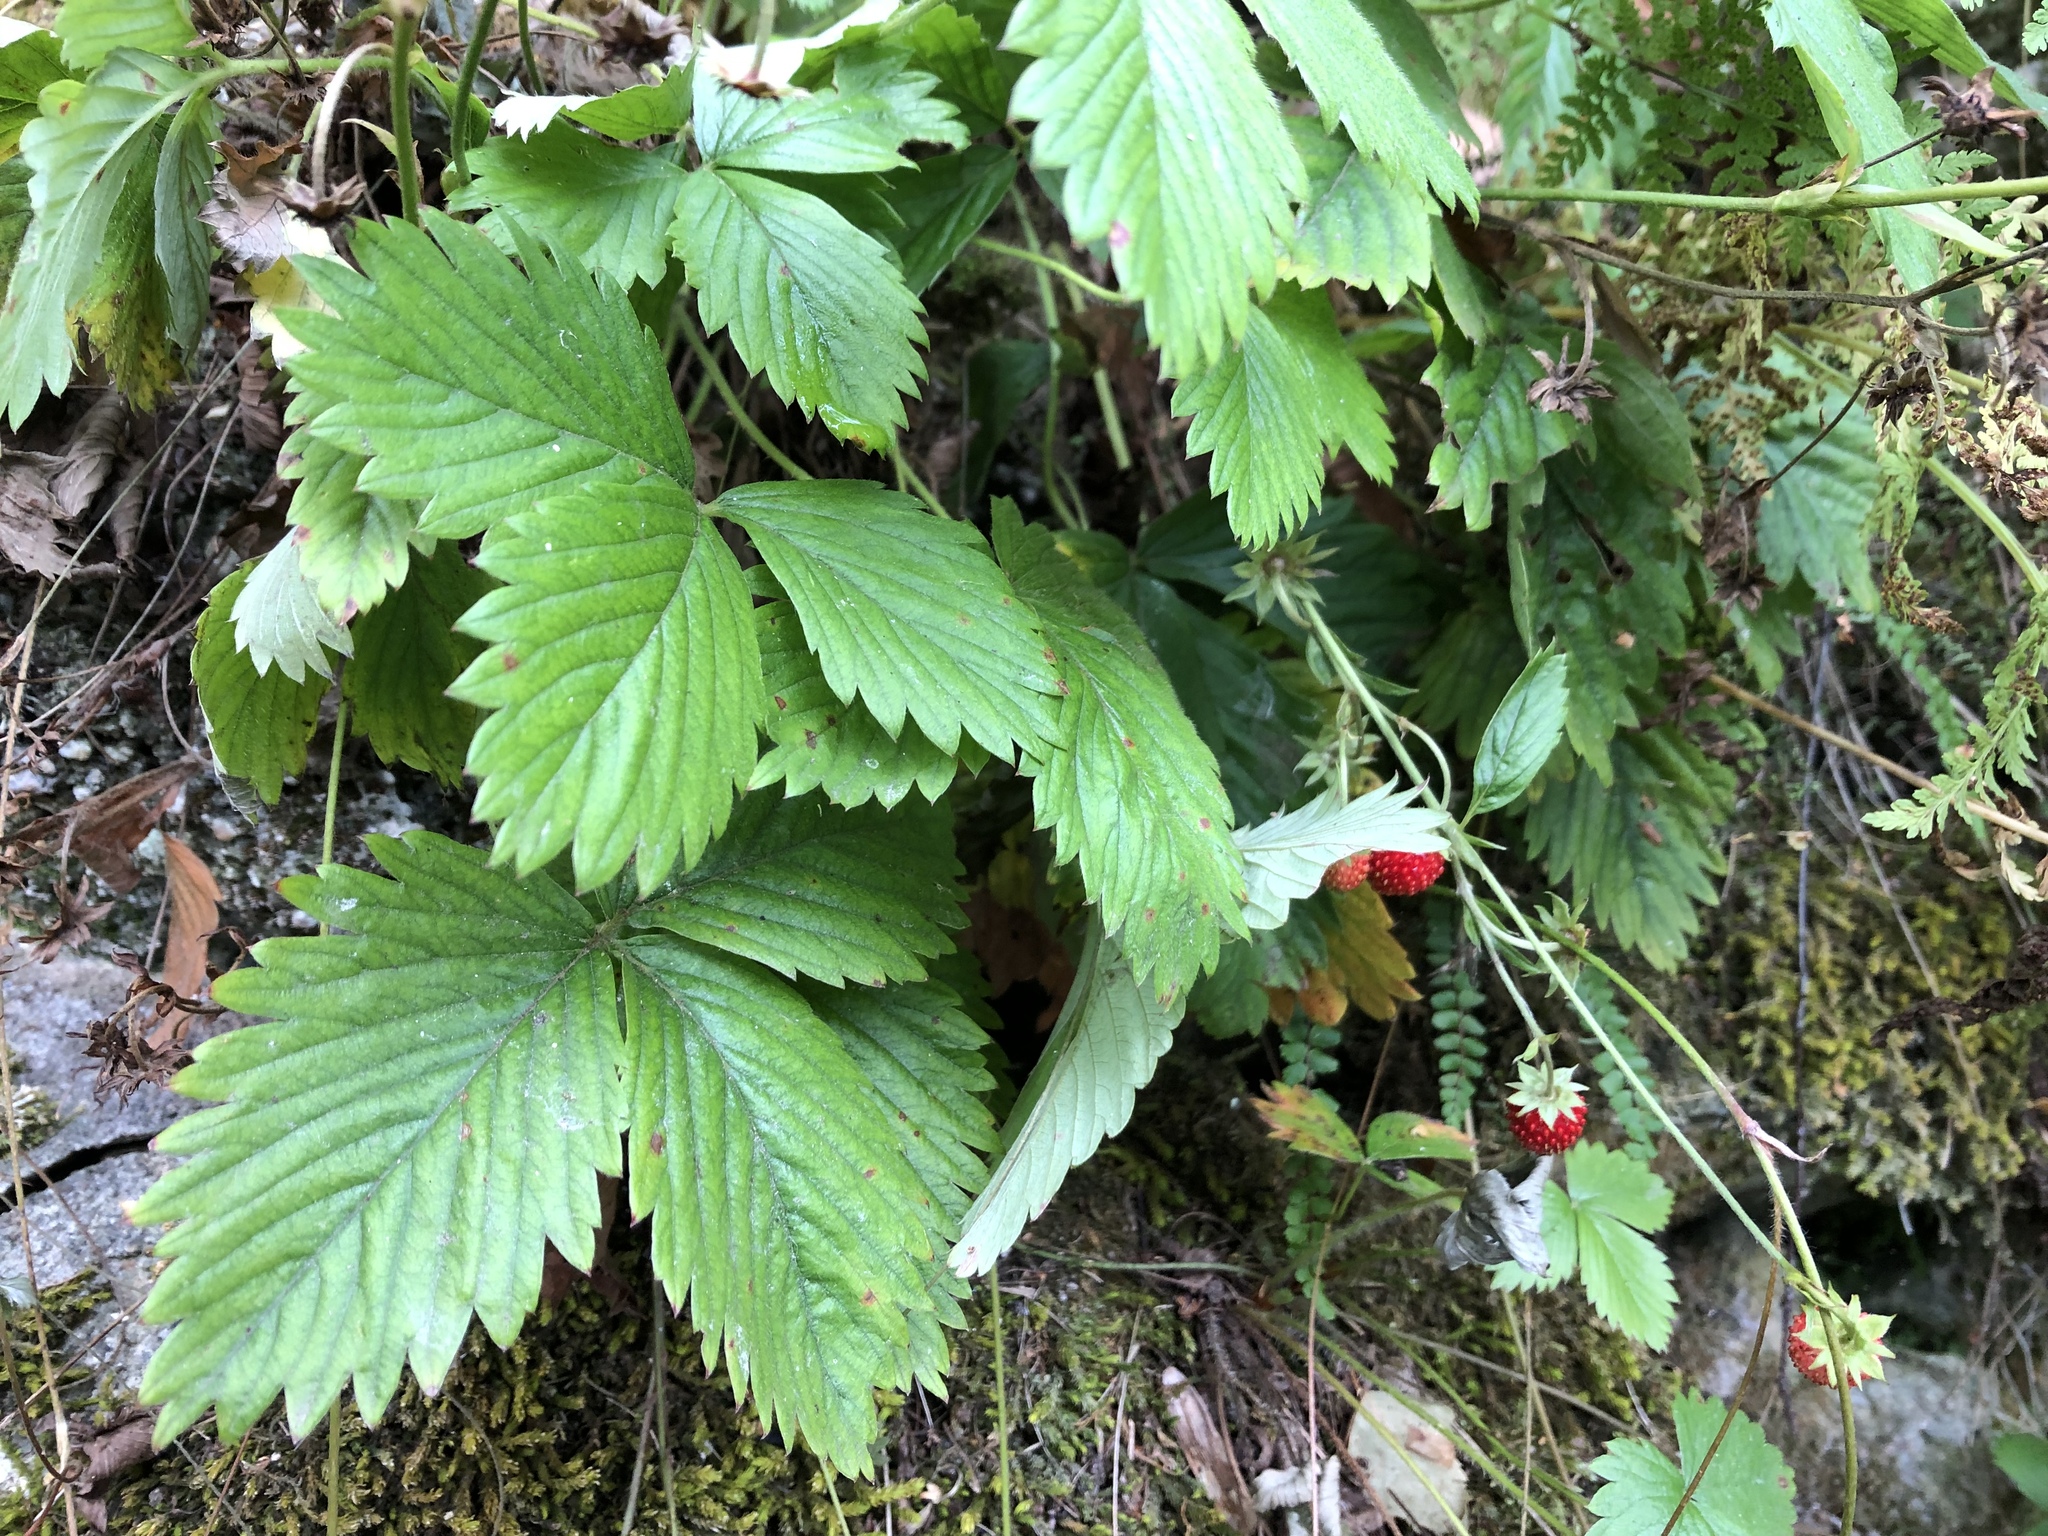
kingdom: Plantae
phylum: Tracheophyta
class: Magnoliopsida
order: Rosales
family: Rosaceae
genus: Fragaria
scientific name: Fragaria vesca
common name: Wild strawberry
